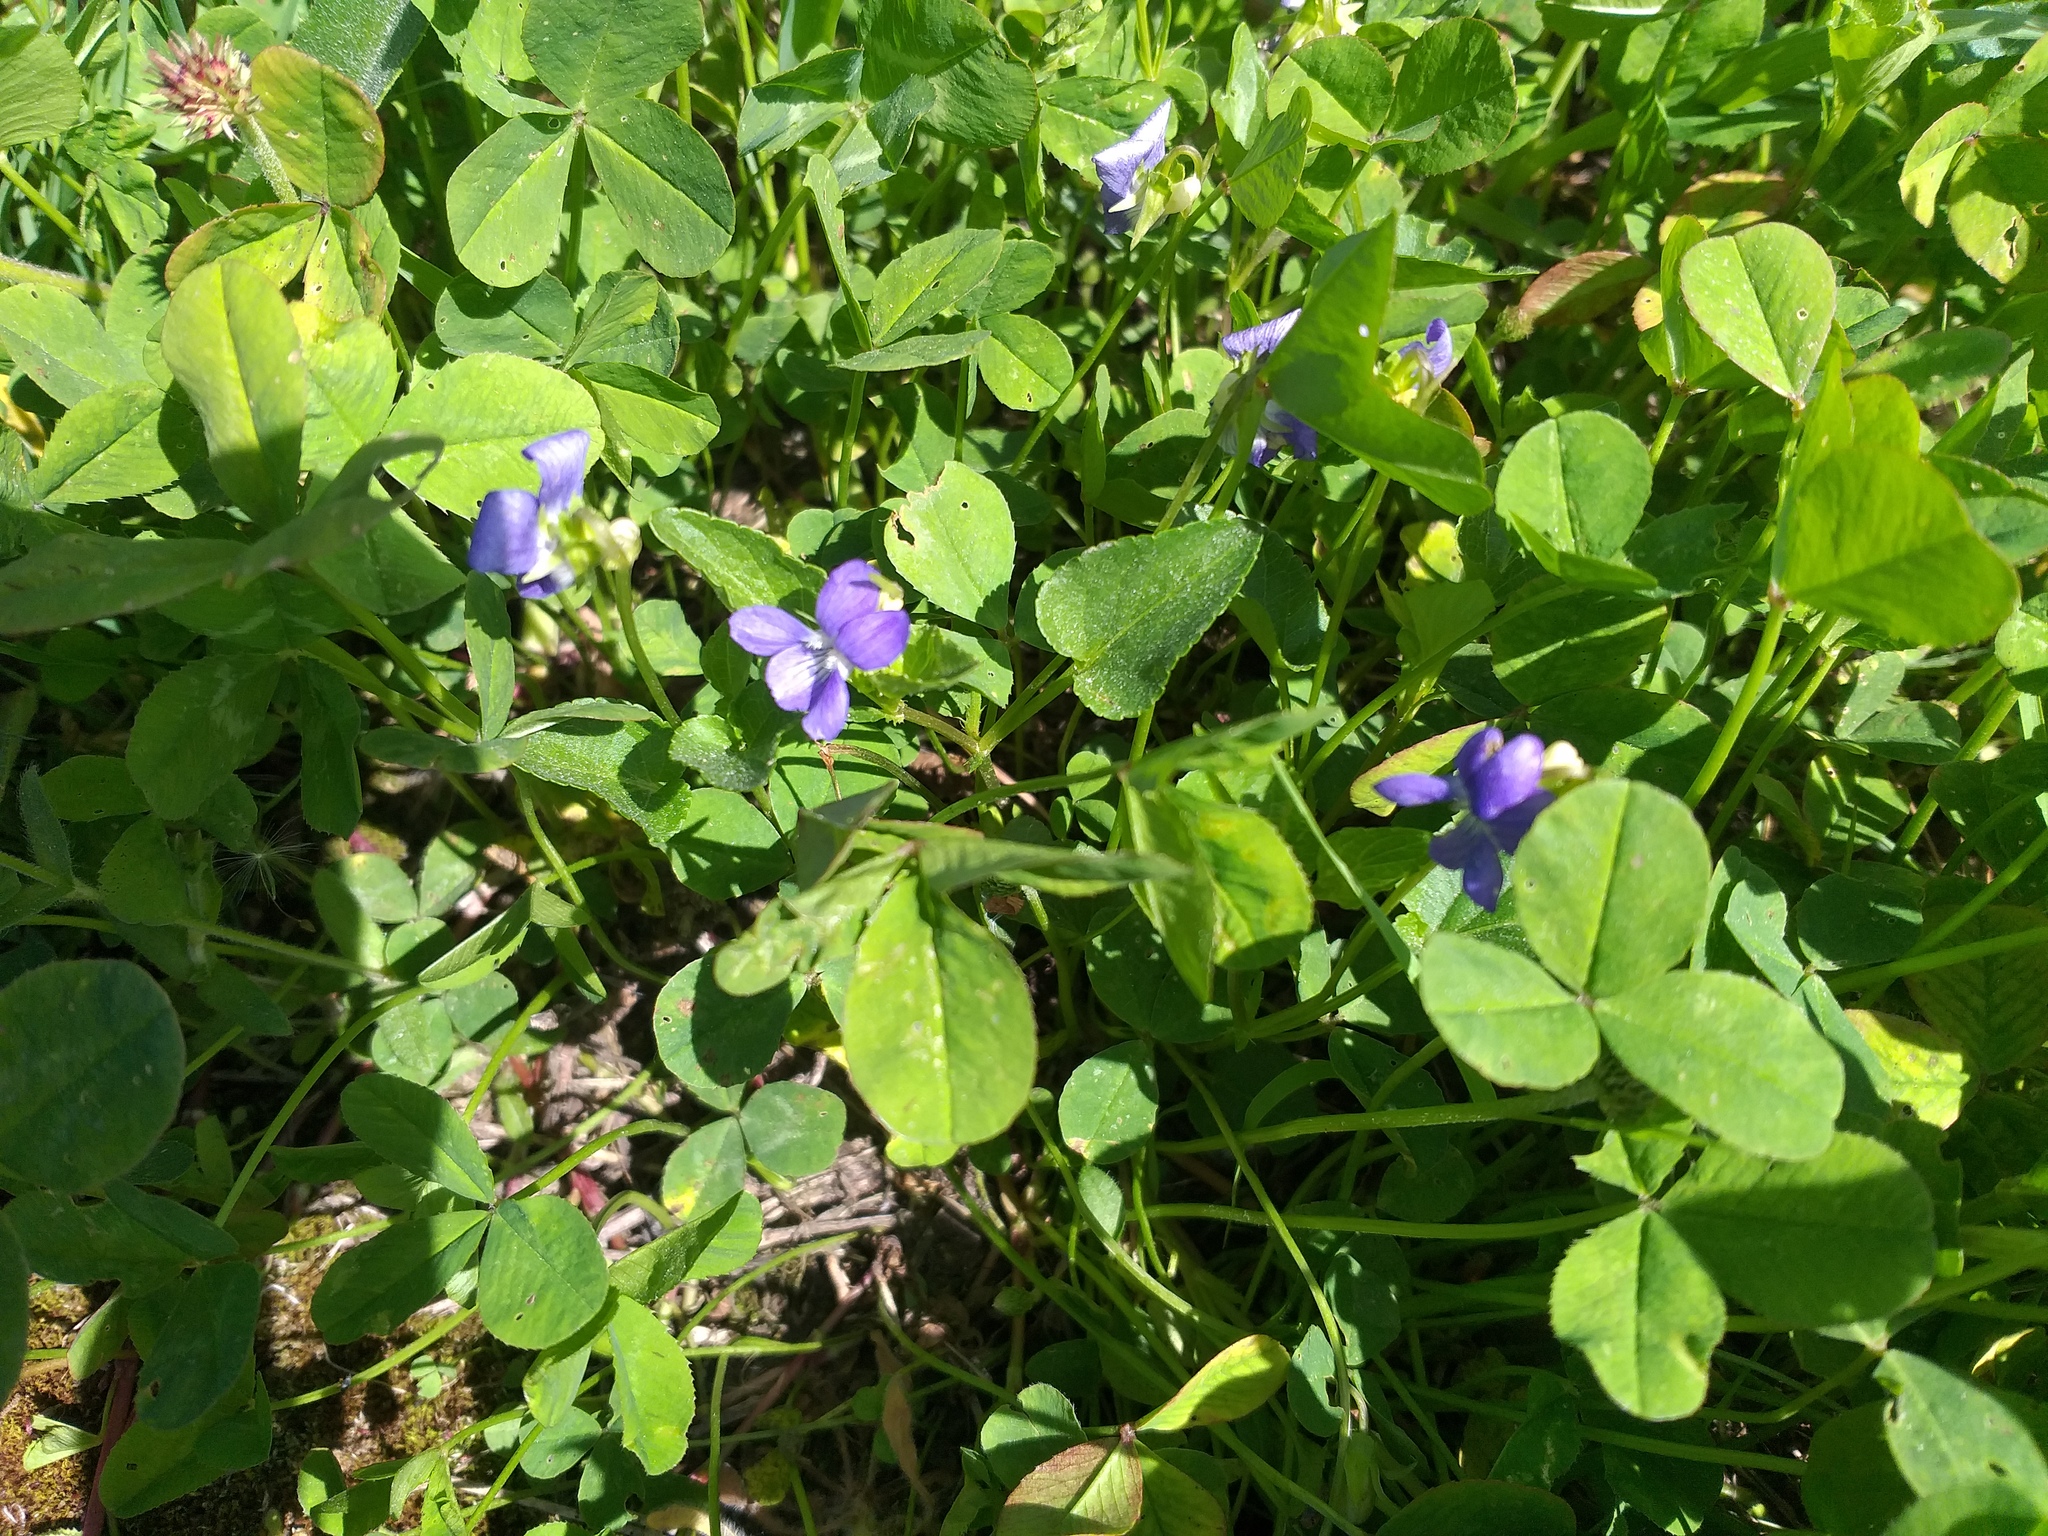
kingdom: Plantae
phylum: Tracheophyta
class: Magnoliopsida
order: Malpighiales
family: Violaceae
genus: Viola
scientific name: Viola canina
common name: Heath dog-violet
